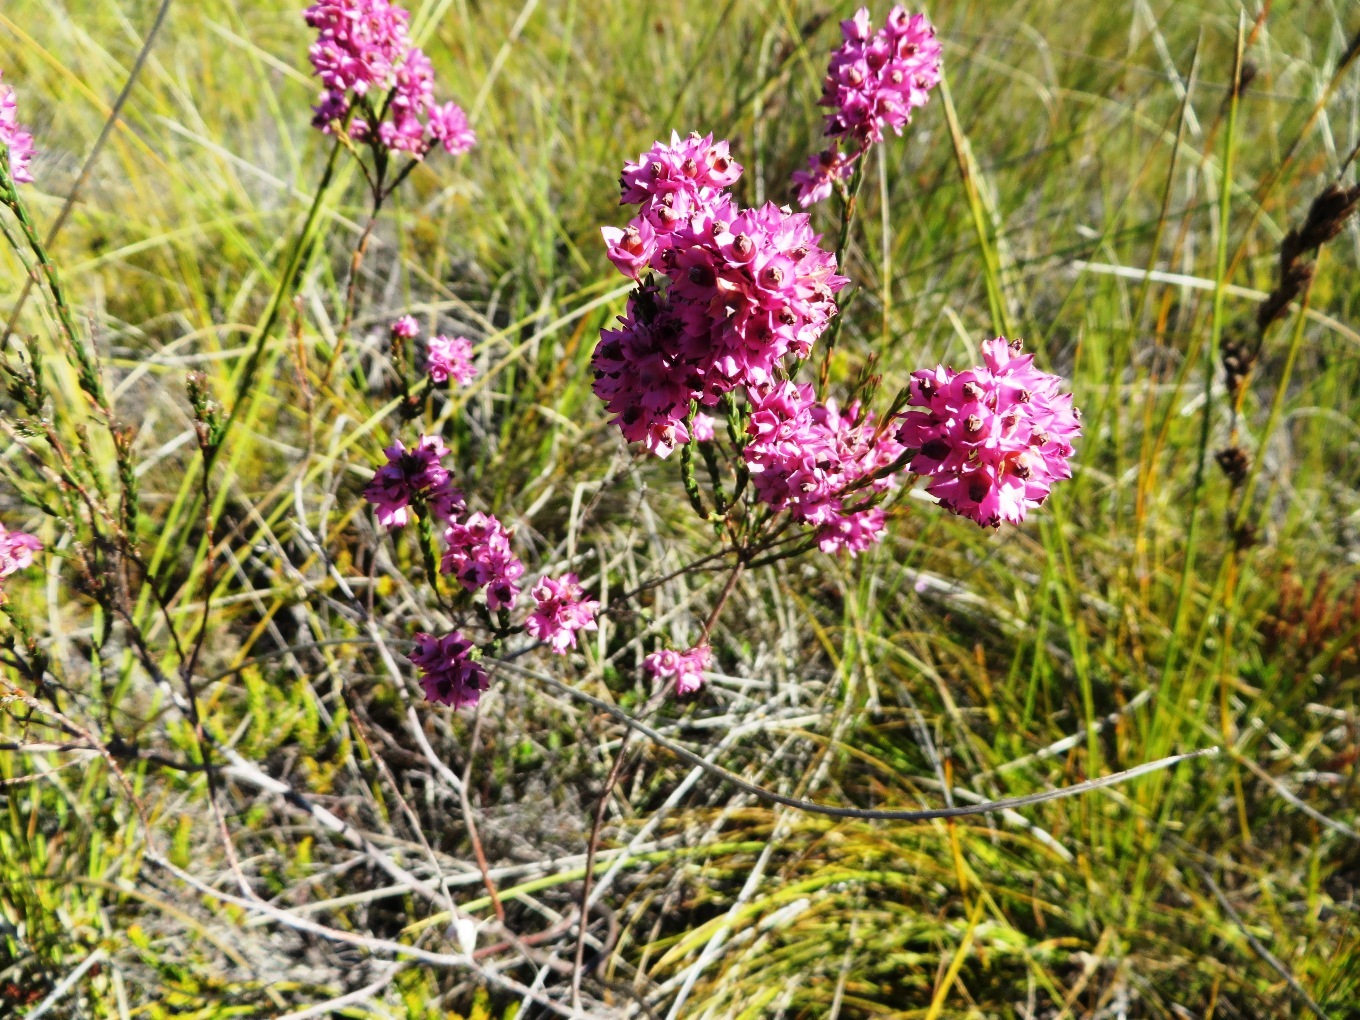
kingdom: Plantae
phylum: Tracheophyta
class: Magnoliopsida
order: Ericales
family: Ericaceae
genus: Erica
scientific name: Erica corifolia
